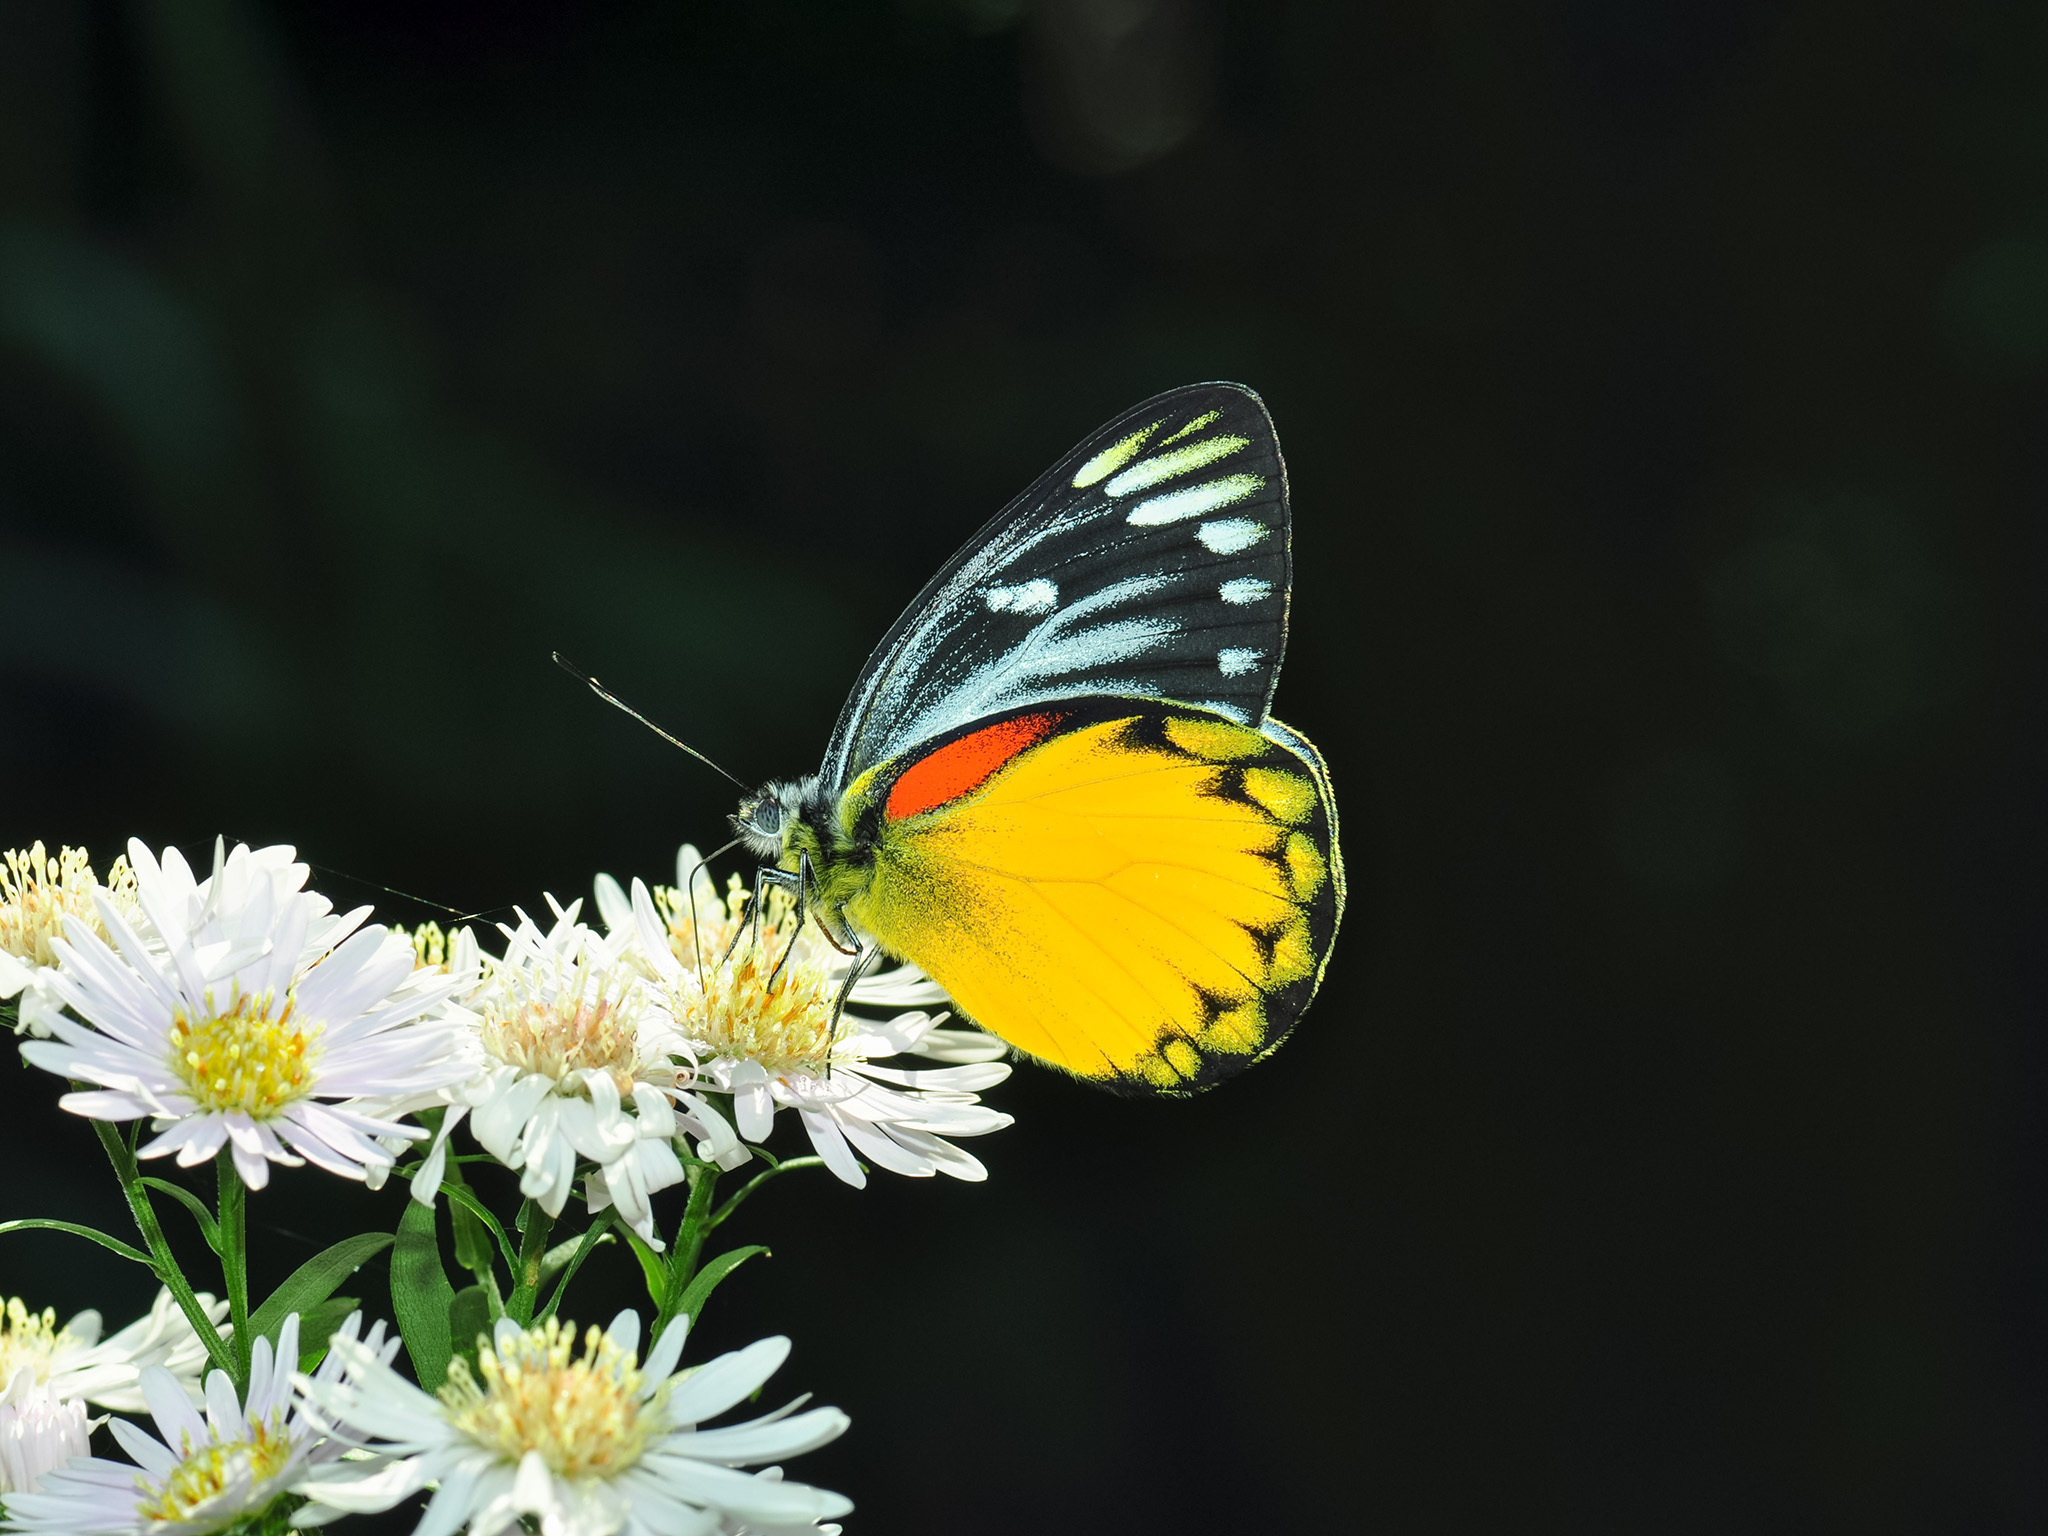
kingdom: Animalia
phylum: Arthropoda
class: Insecta
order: Lepidoptera
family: Pieridae
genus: Delias
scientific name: Delias descombesi
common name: Red-spot jezebel
